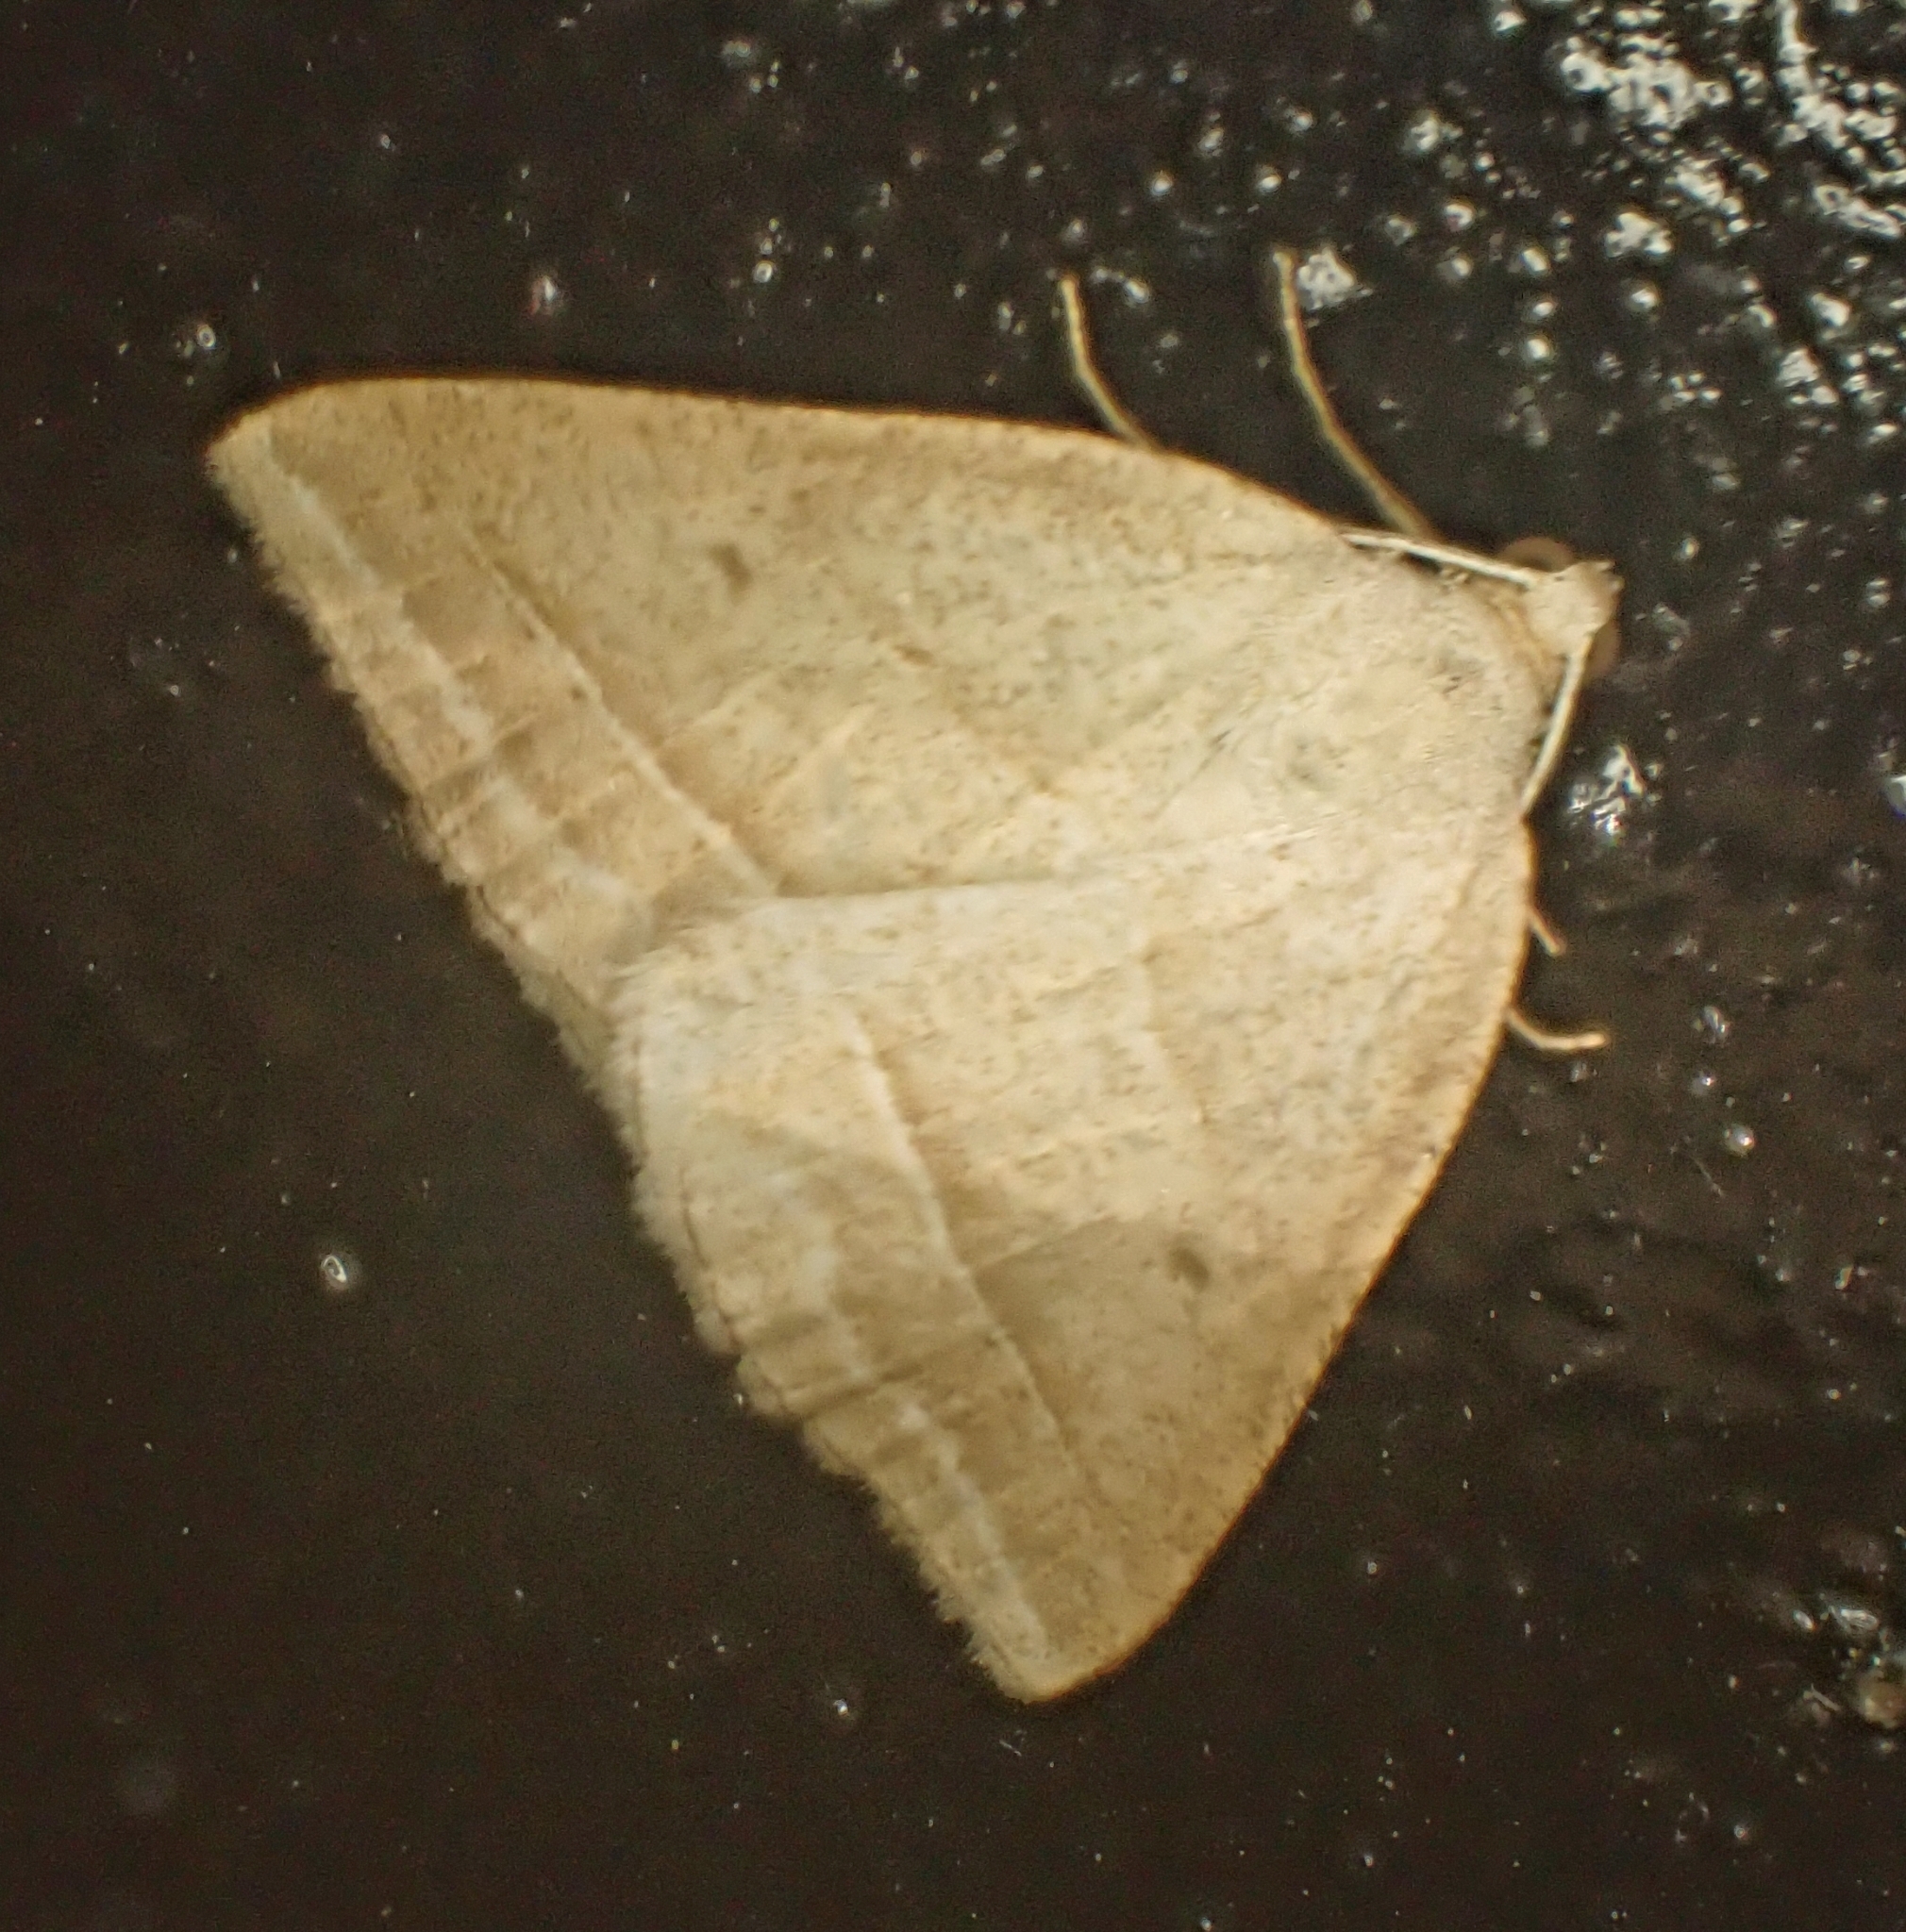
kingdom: Animalia
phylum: Arthropoda
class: Insecta
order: Lepidoptera
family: Pterophoridae
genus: Pterophorus
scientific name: Pterophorus Petrophora chlorosata
